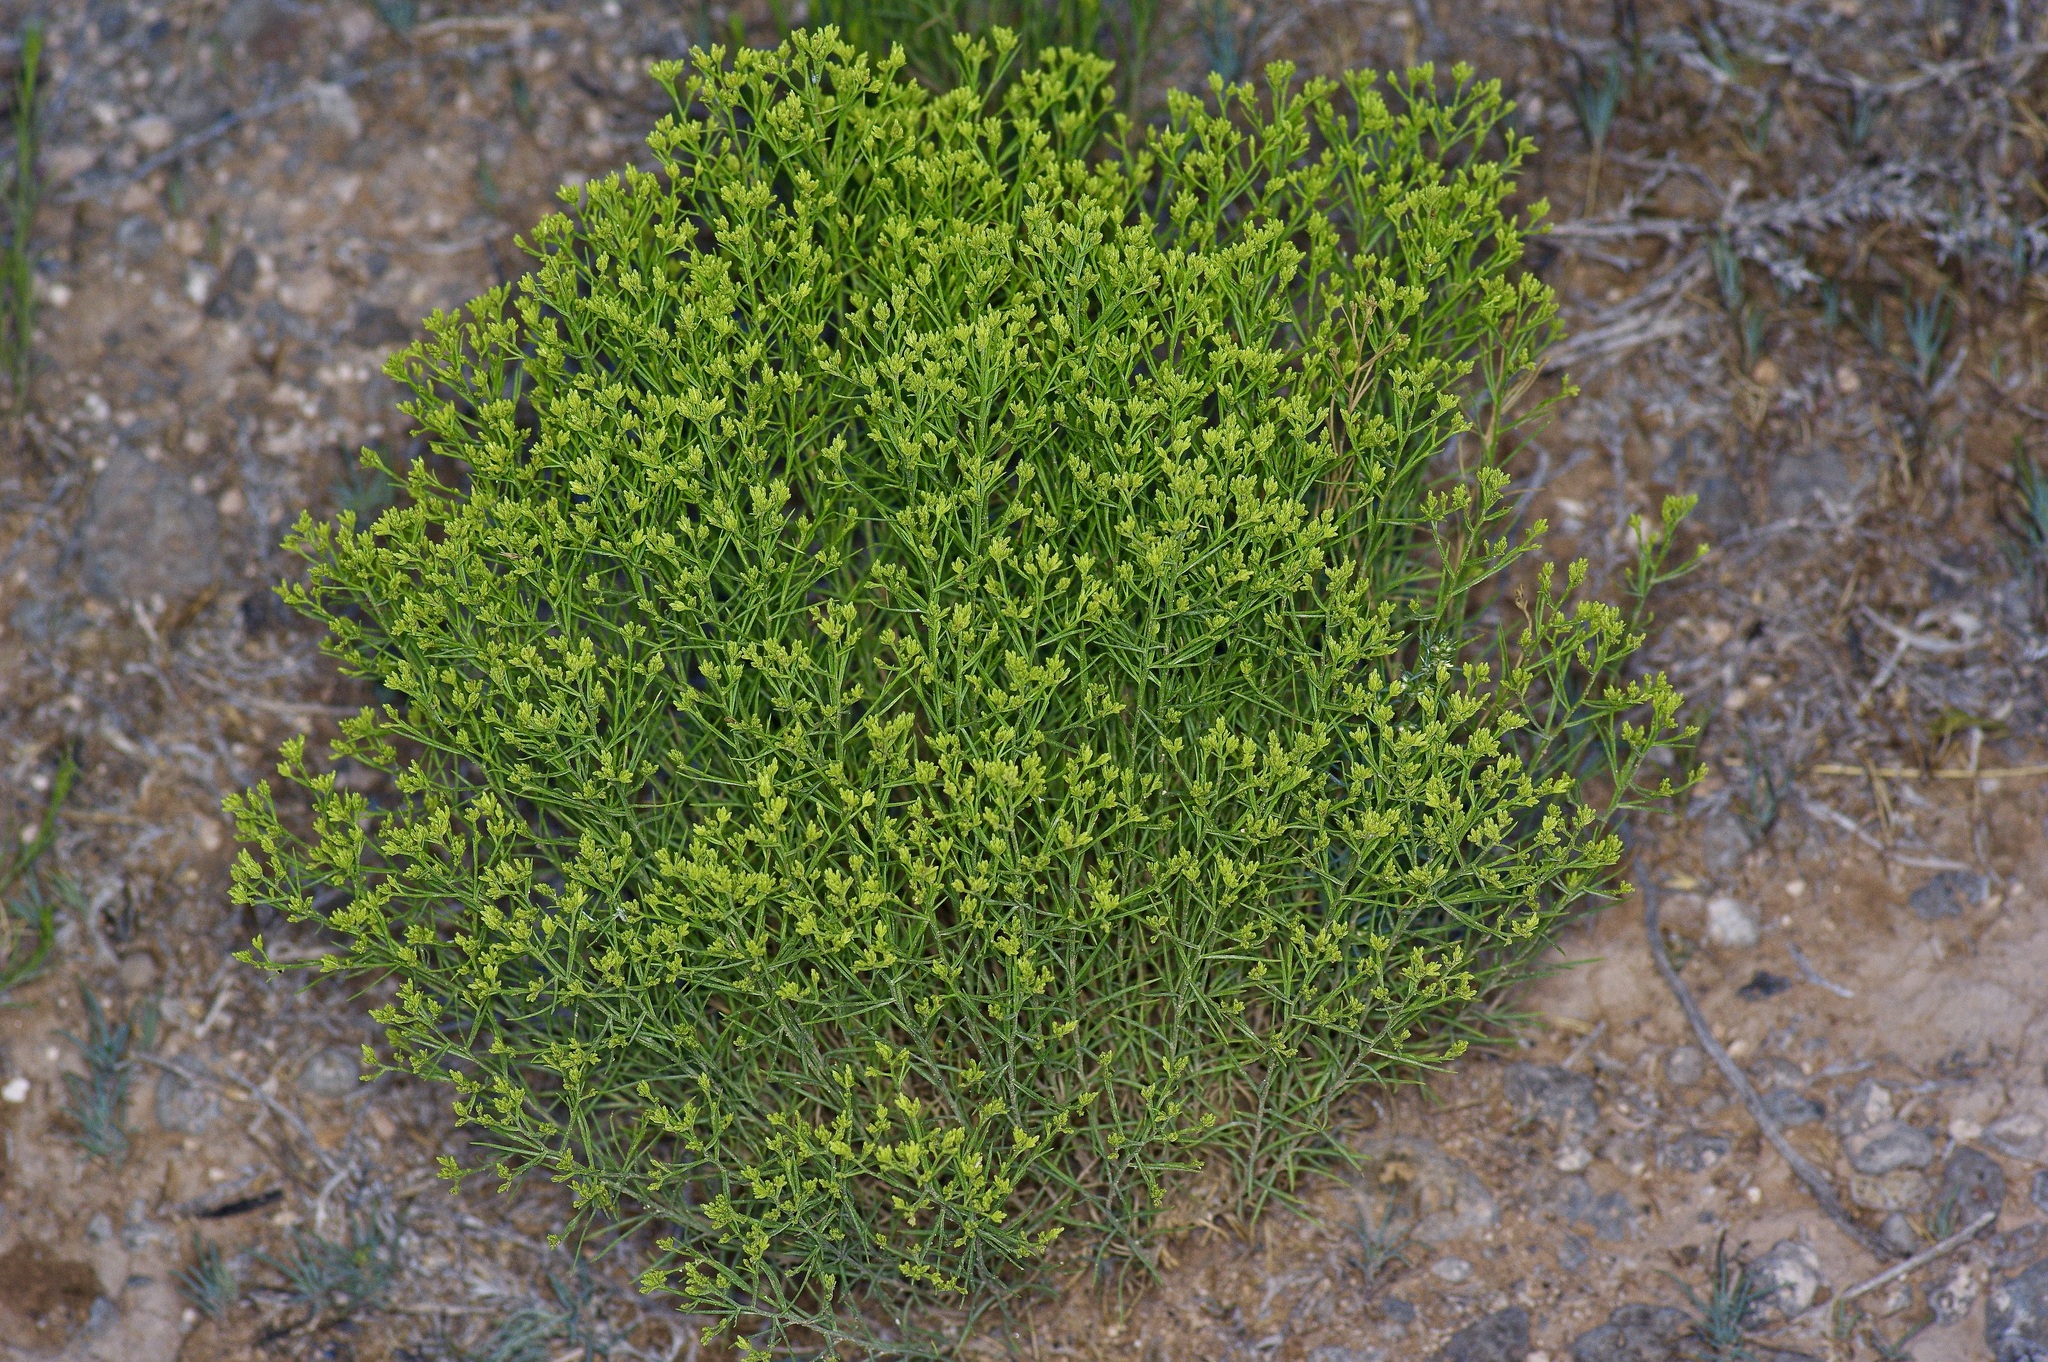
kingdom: Plantae
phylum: Tracheophyta
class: Magnoliopsida
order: Asterales
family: Asteraceae
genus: Chrysothamnus
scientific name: Chrysothamnus greenei
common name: Greene's rabbitbrush
